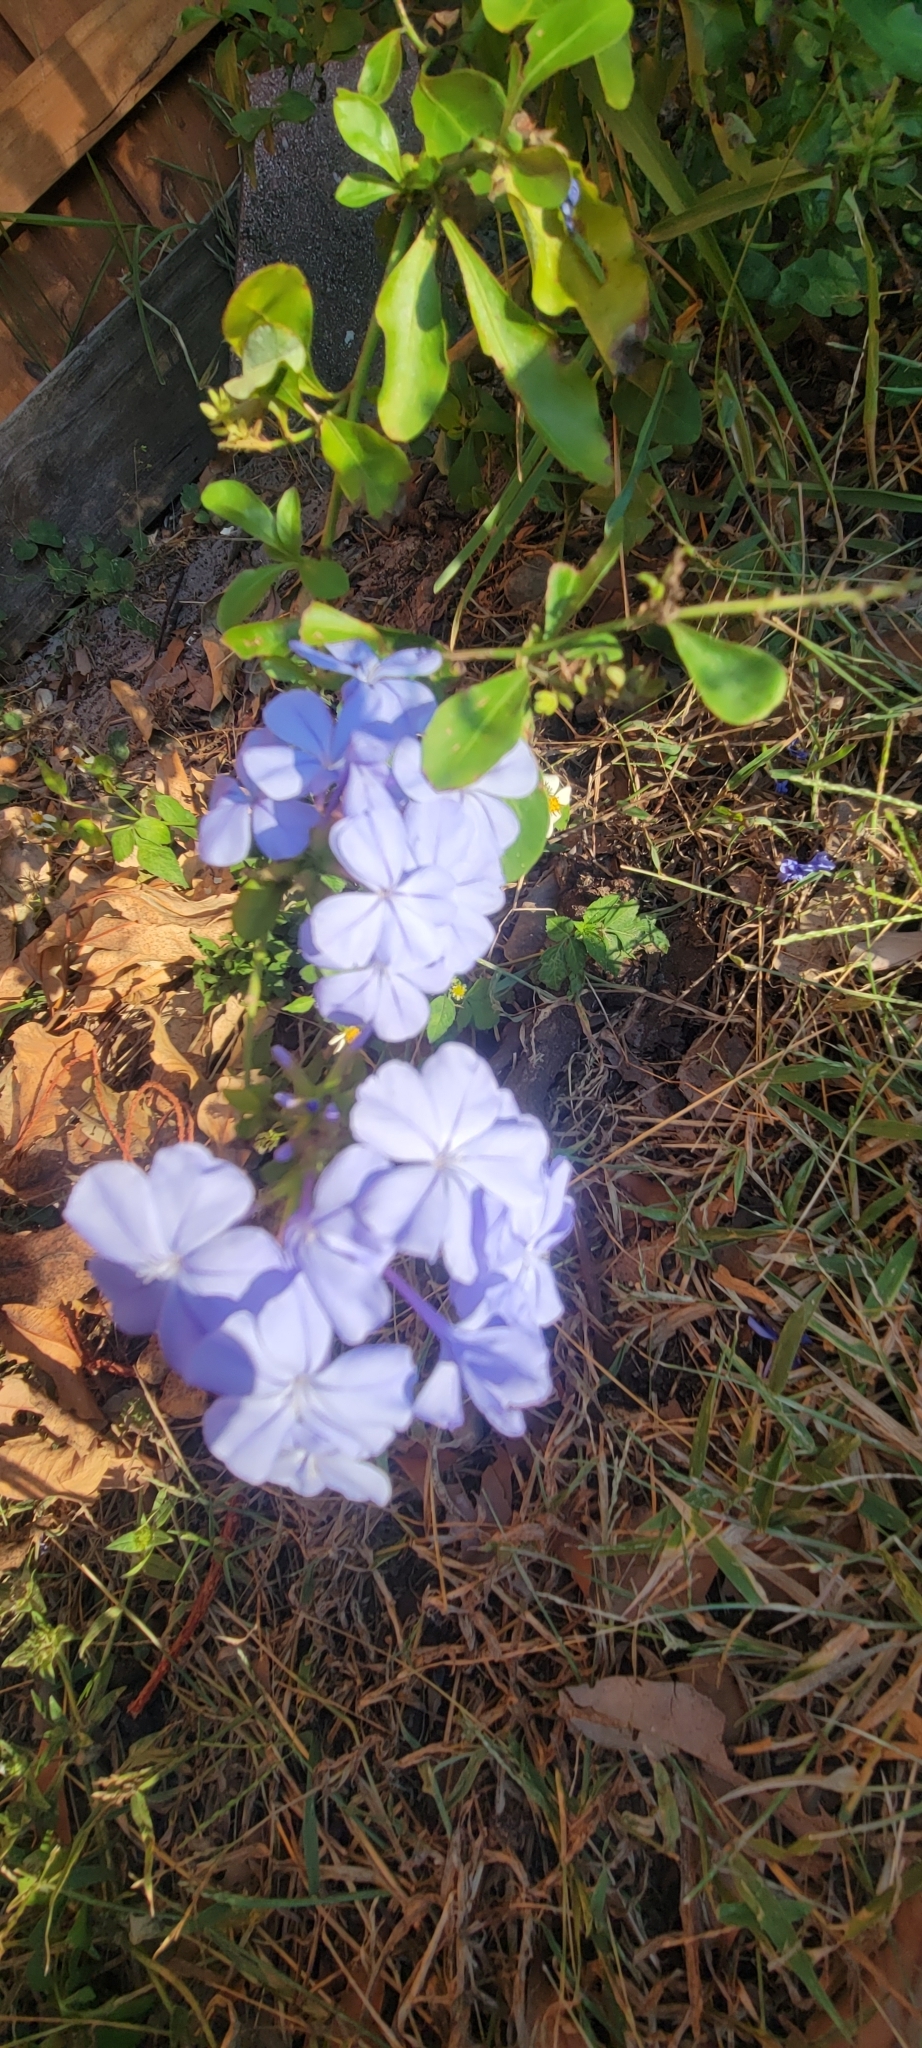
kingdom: Plantae
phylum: Tracheophyta
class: Magnoliopsida
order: Caryophyllales
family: Plumbaginaceae
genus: Plumbago
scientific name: Plumbago auriculata
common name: Cape leadwort
